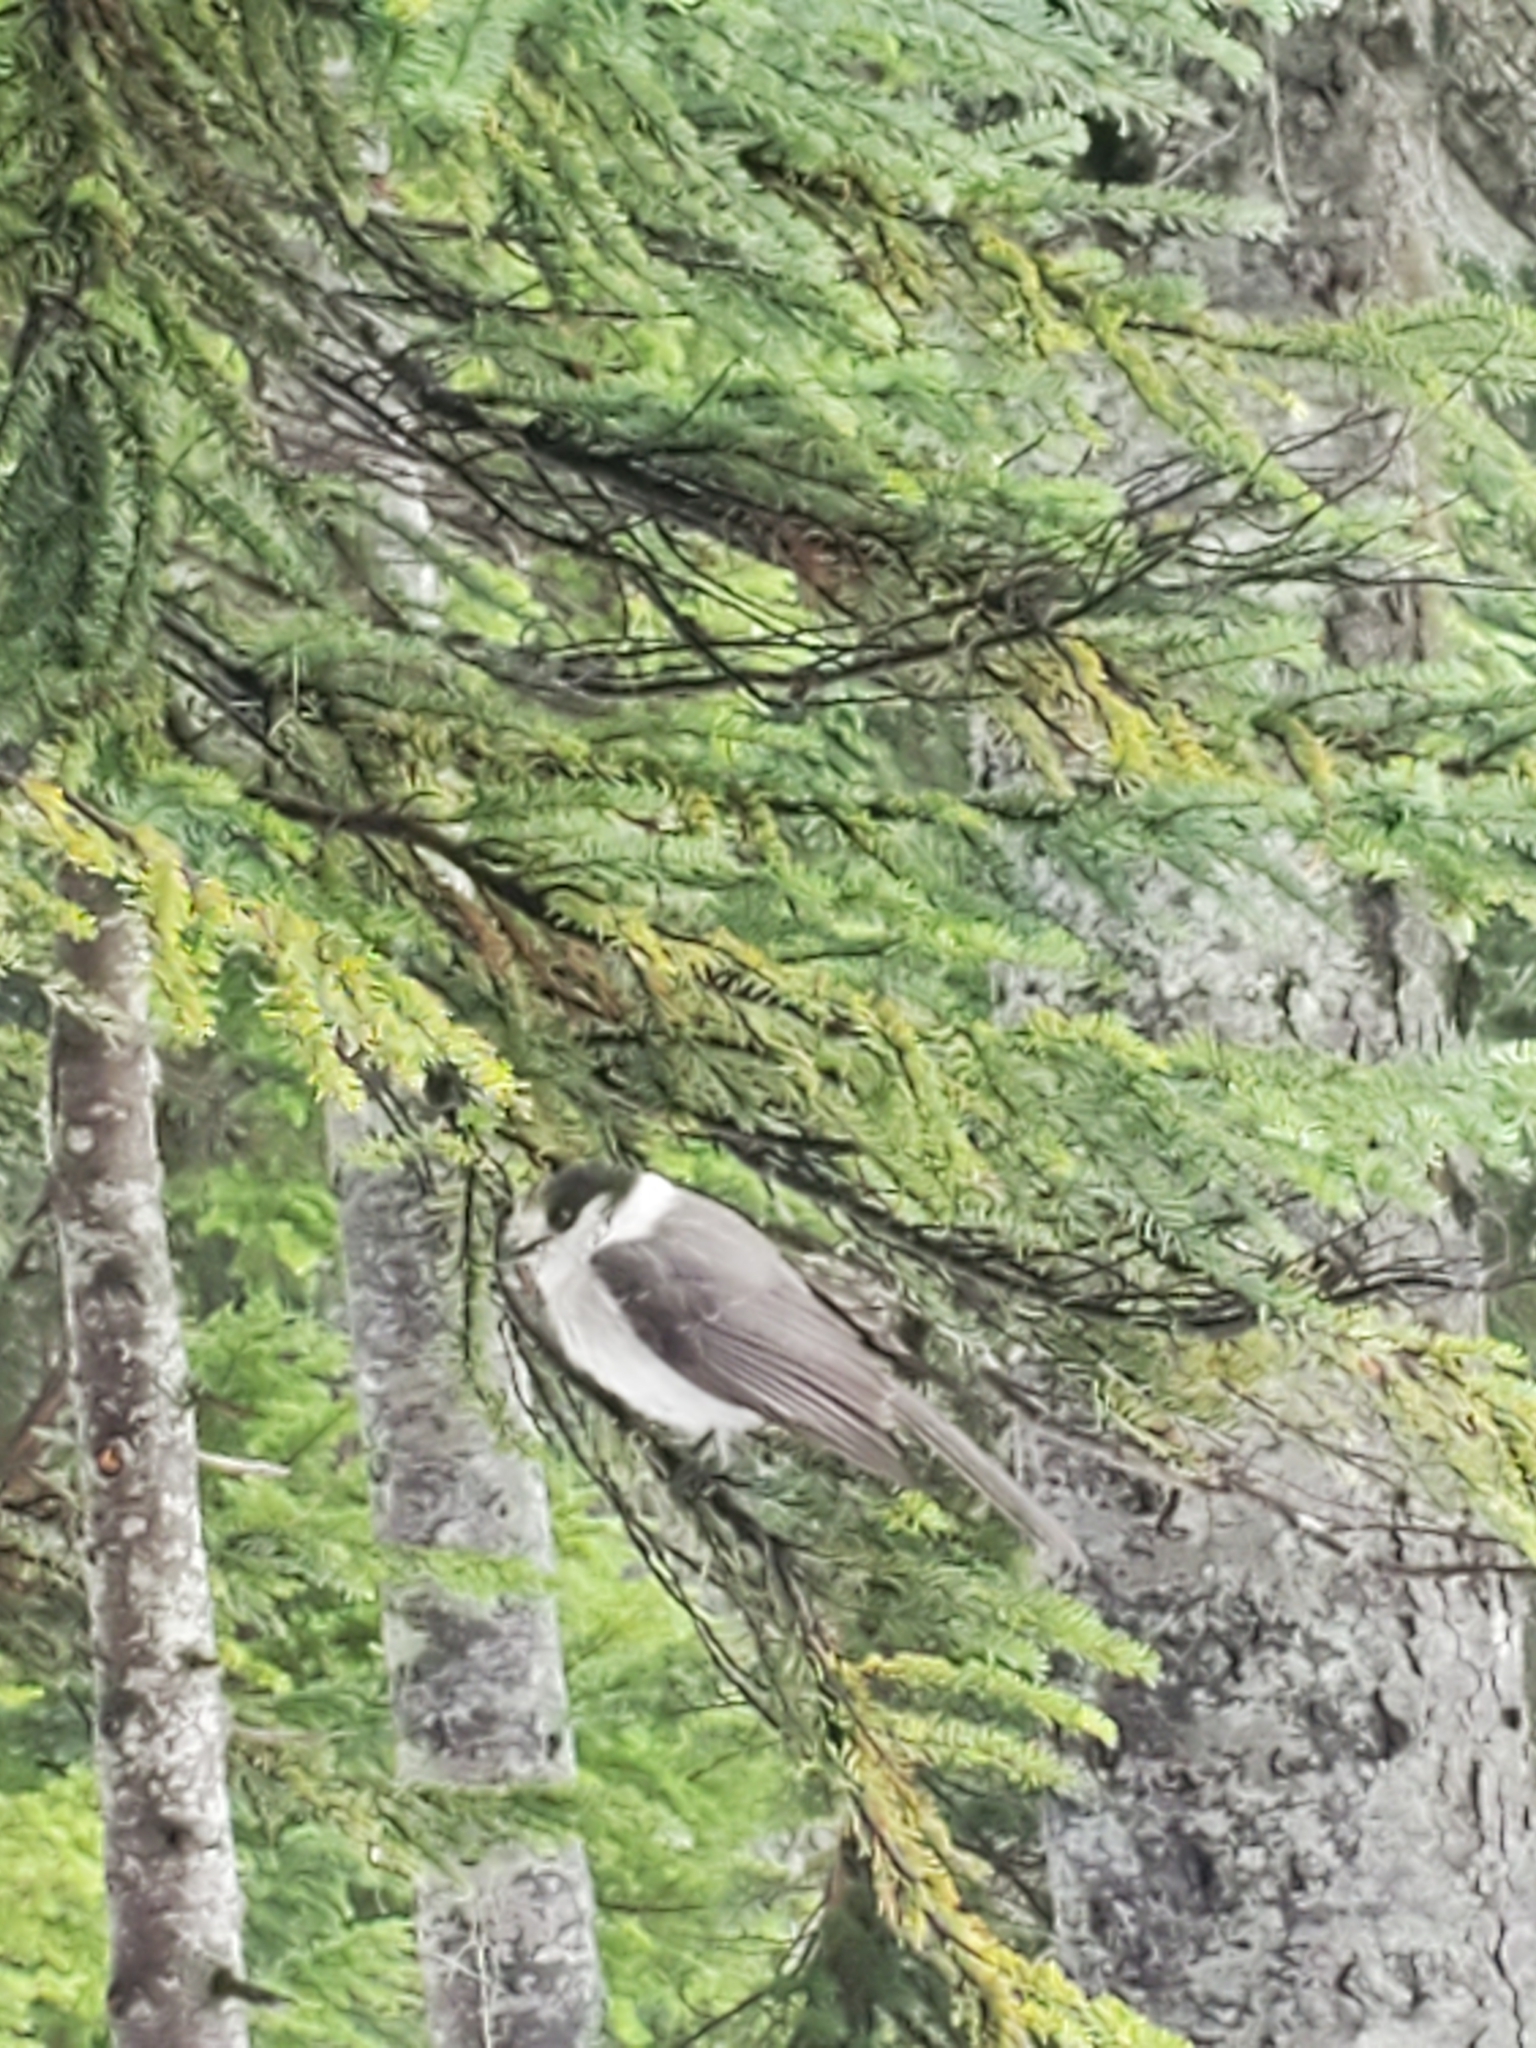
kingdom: Animalia
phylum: Chordata
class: Aves
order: Passeriformes
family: Corvidae
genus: Perisoreus
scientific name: Perisoreus canadensis
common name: Gray jay
